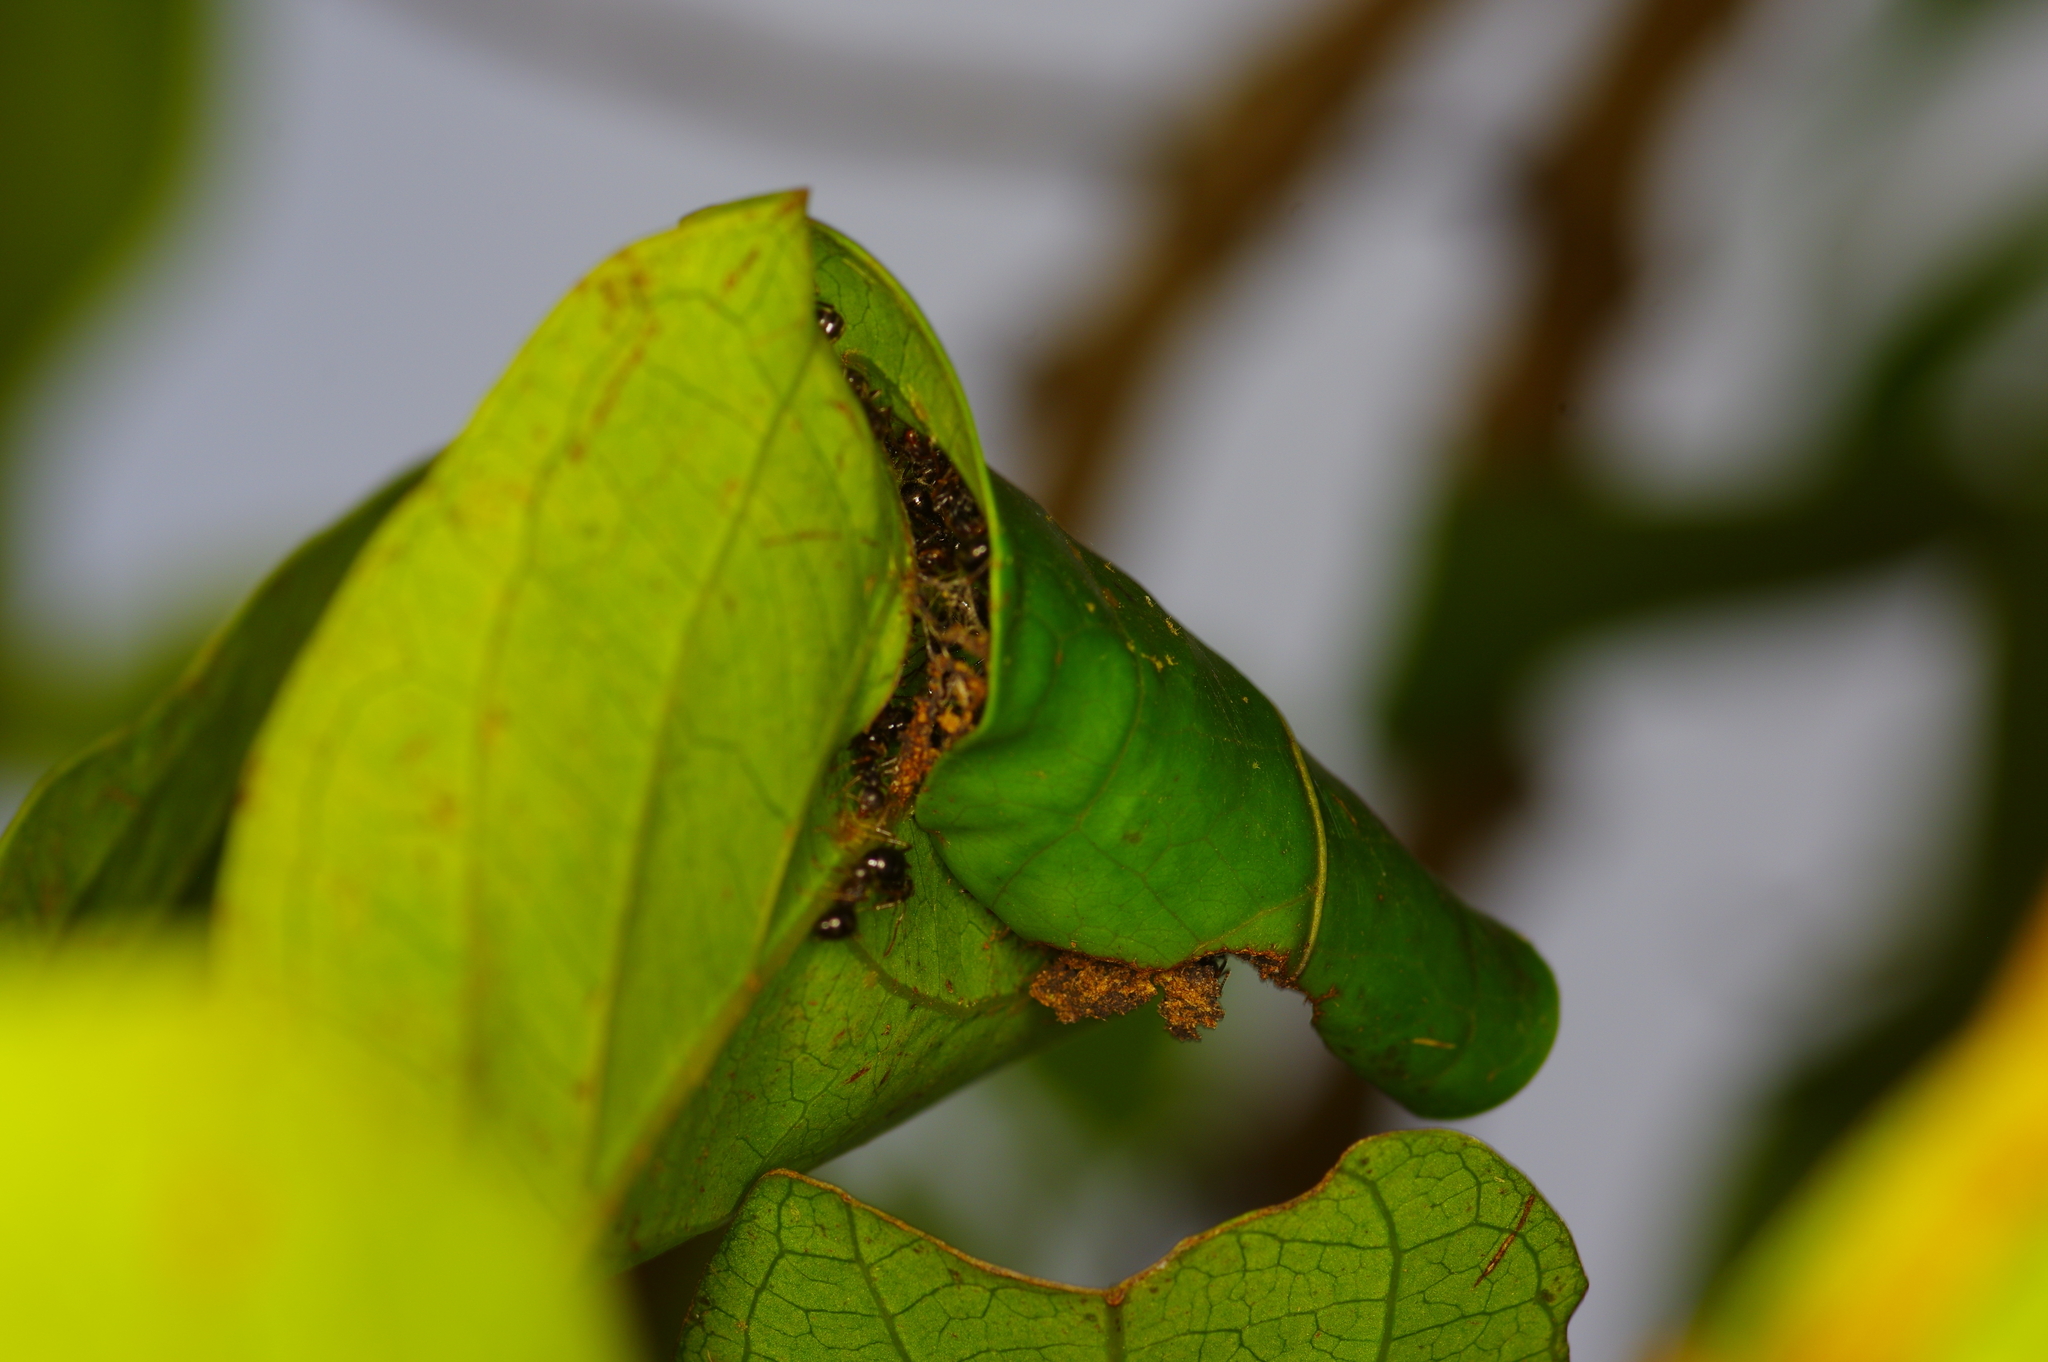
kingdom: Animalia
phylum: Arthropoda
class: Insecta
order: Hymenoptera
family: Formicidae
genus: Dolichoderus
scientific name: Dolichoderus thoracicus
